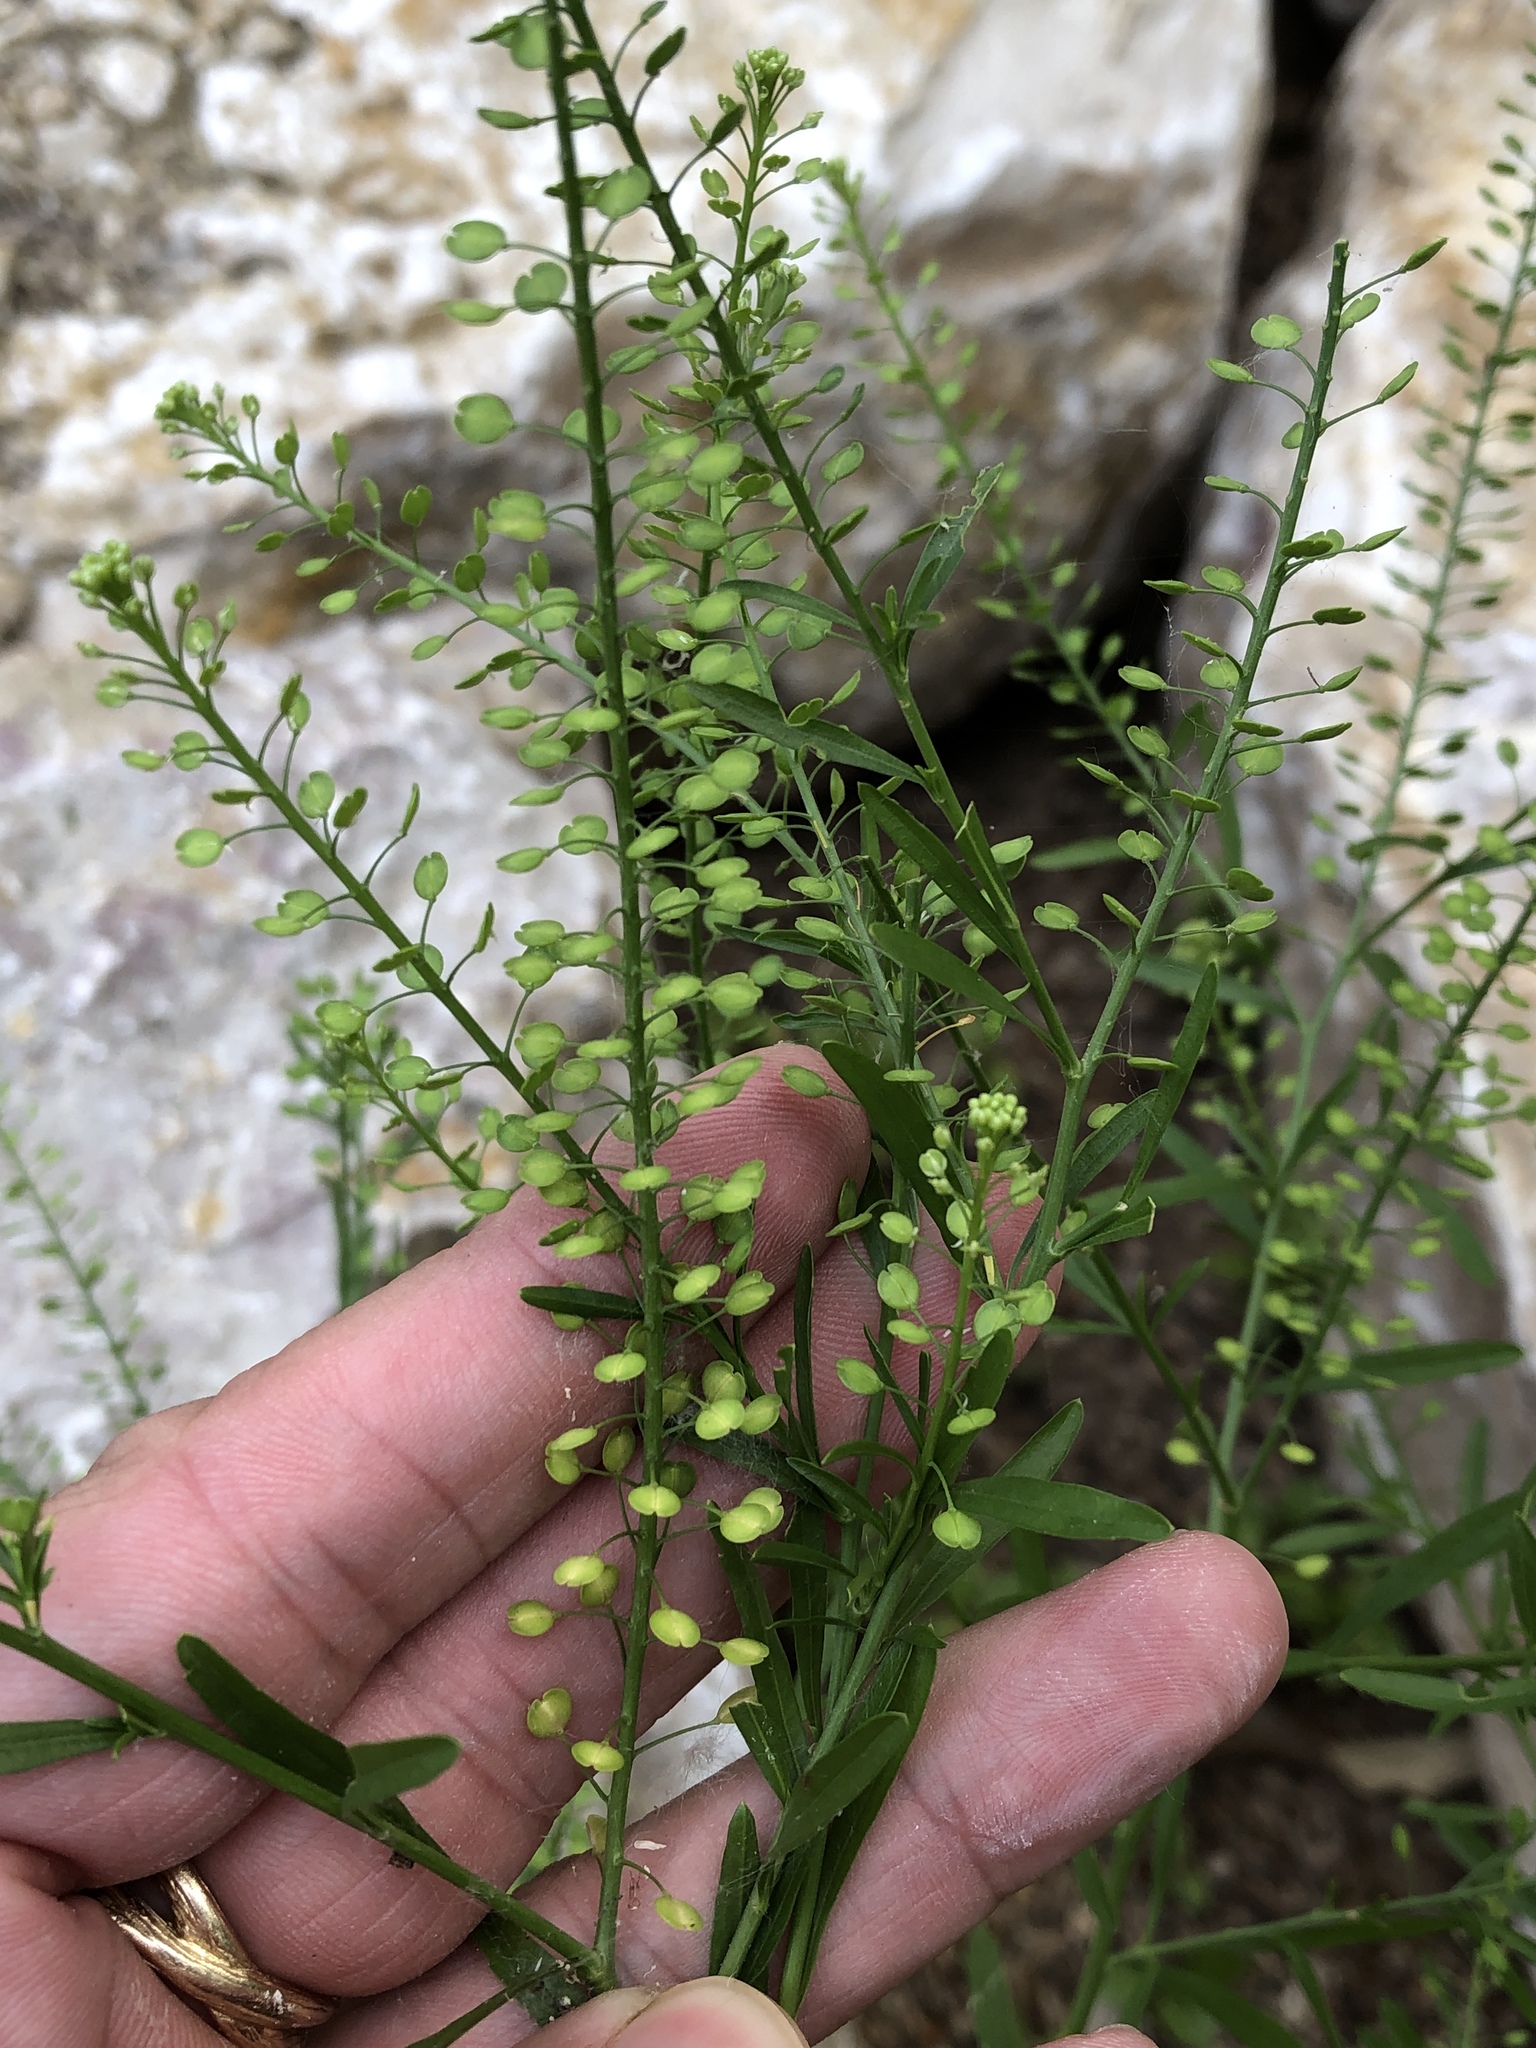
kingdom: Plantae
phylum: Tracheophyta
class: Magnoliopsida
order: Brassicales
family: Brassicaceae
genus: Lepidium
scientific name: Lepidium virginicum
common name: Least pepperwort
